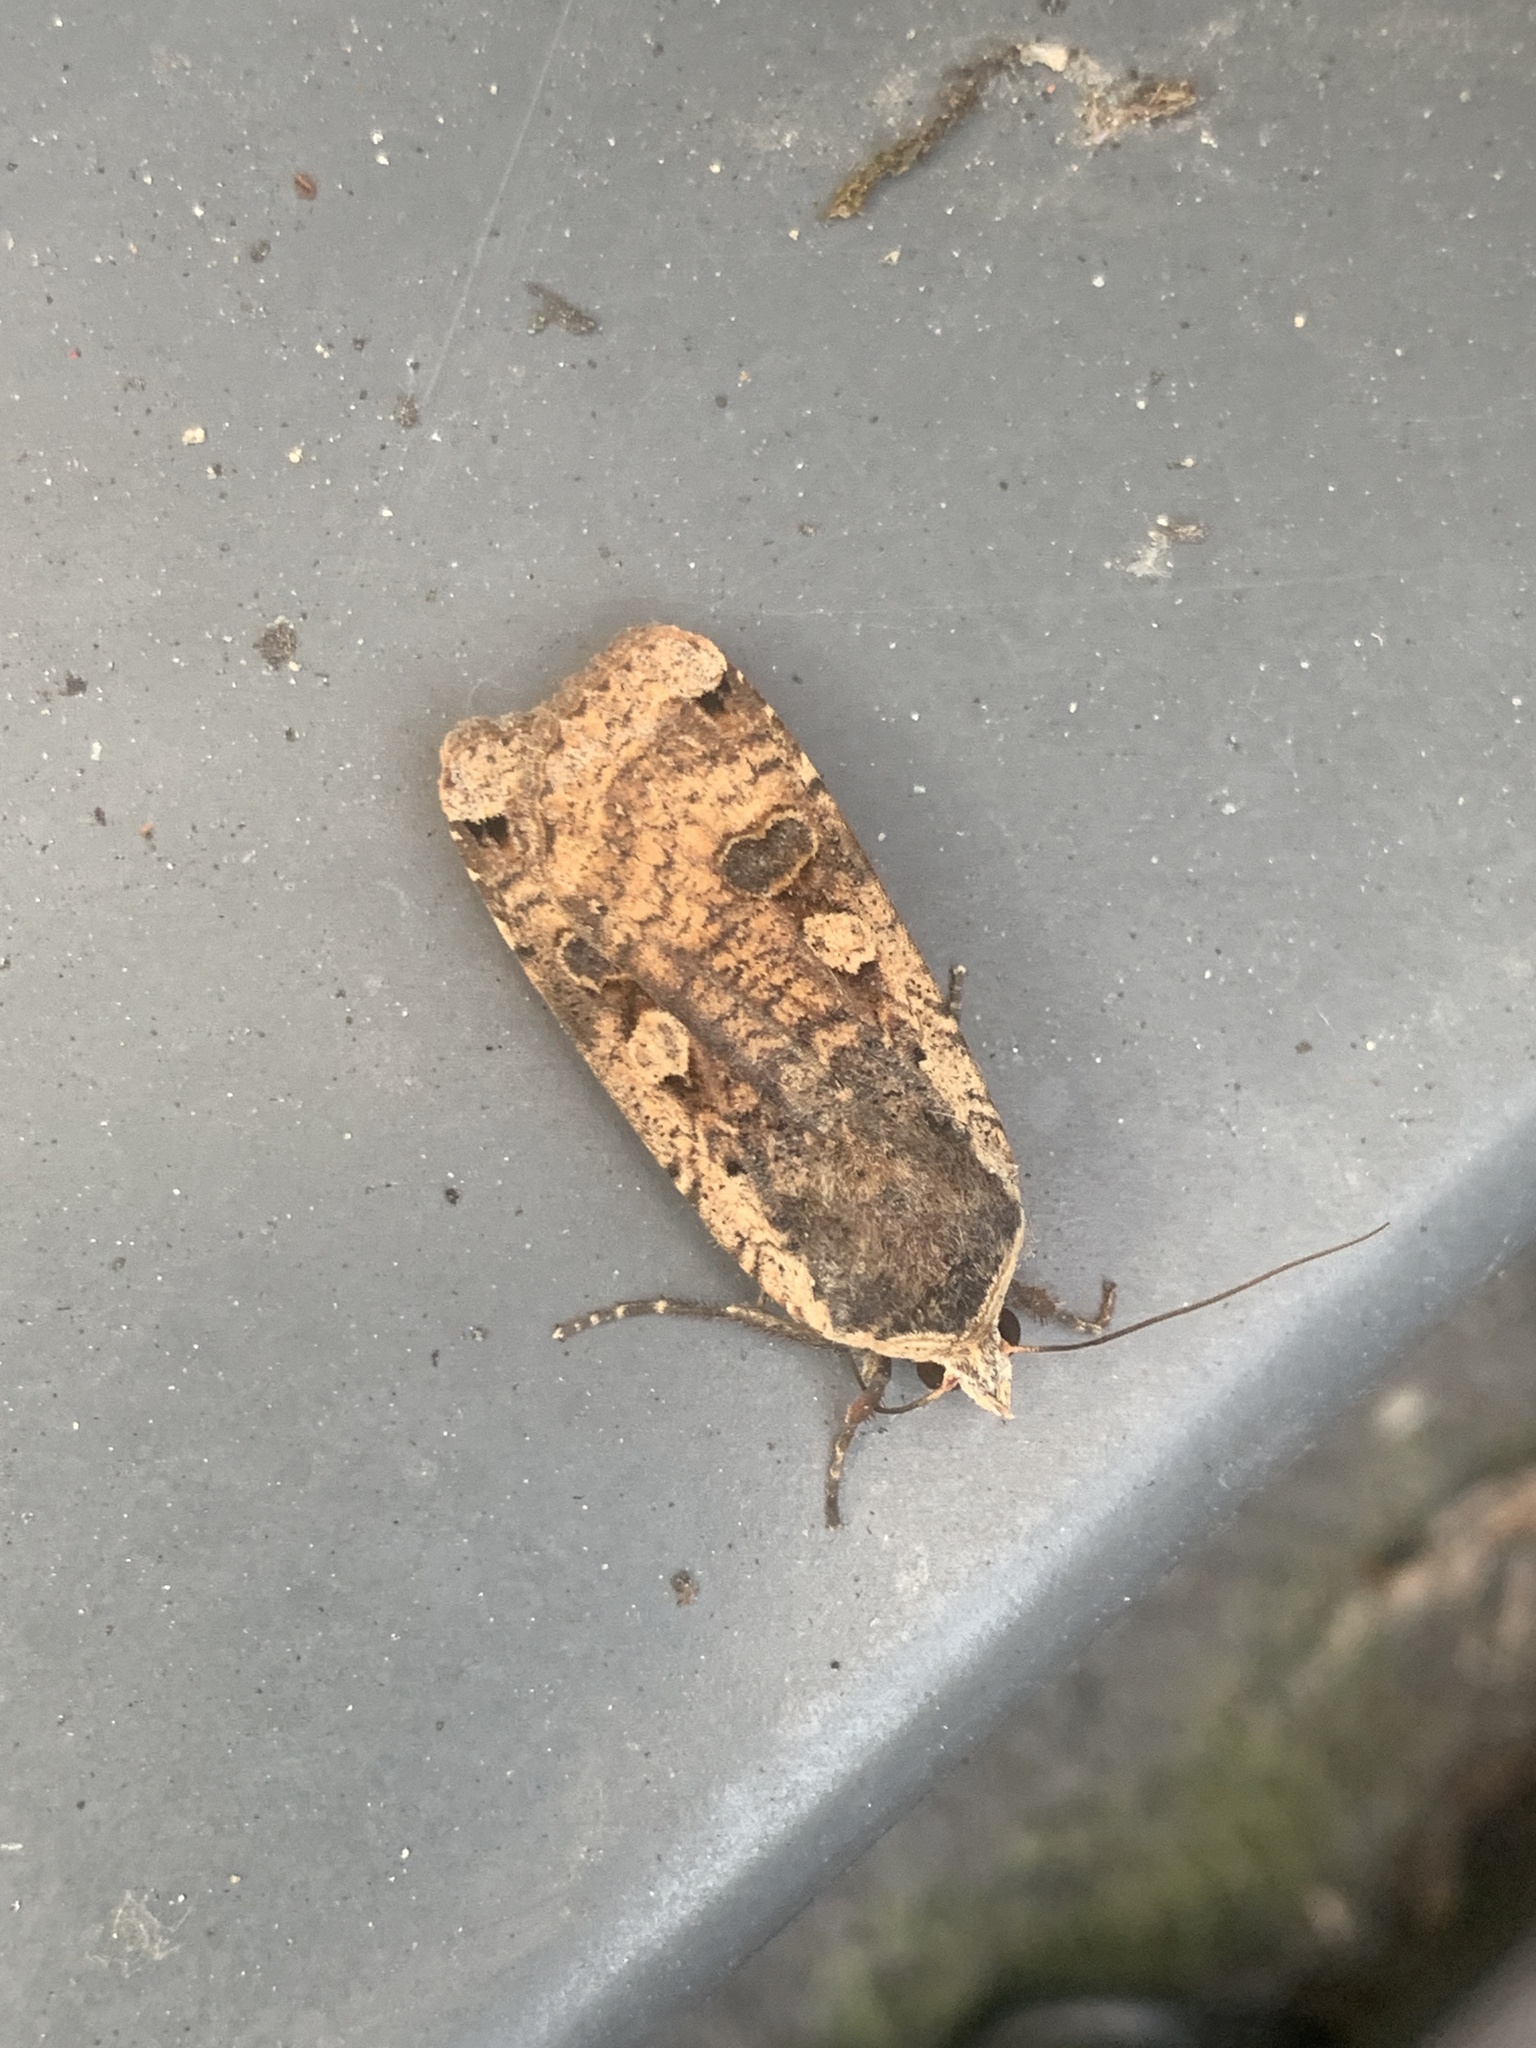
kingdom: Animalia
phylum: Arthropoda
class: Insecta
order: Lepidoptera
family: Noctuidae
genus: Noctua
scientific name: Noctua pronuba
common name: Large yellow underwing
